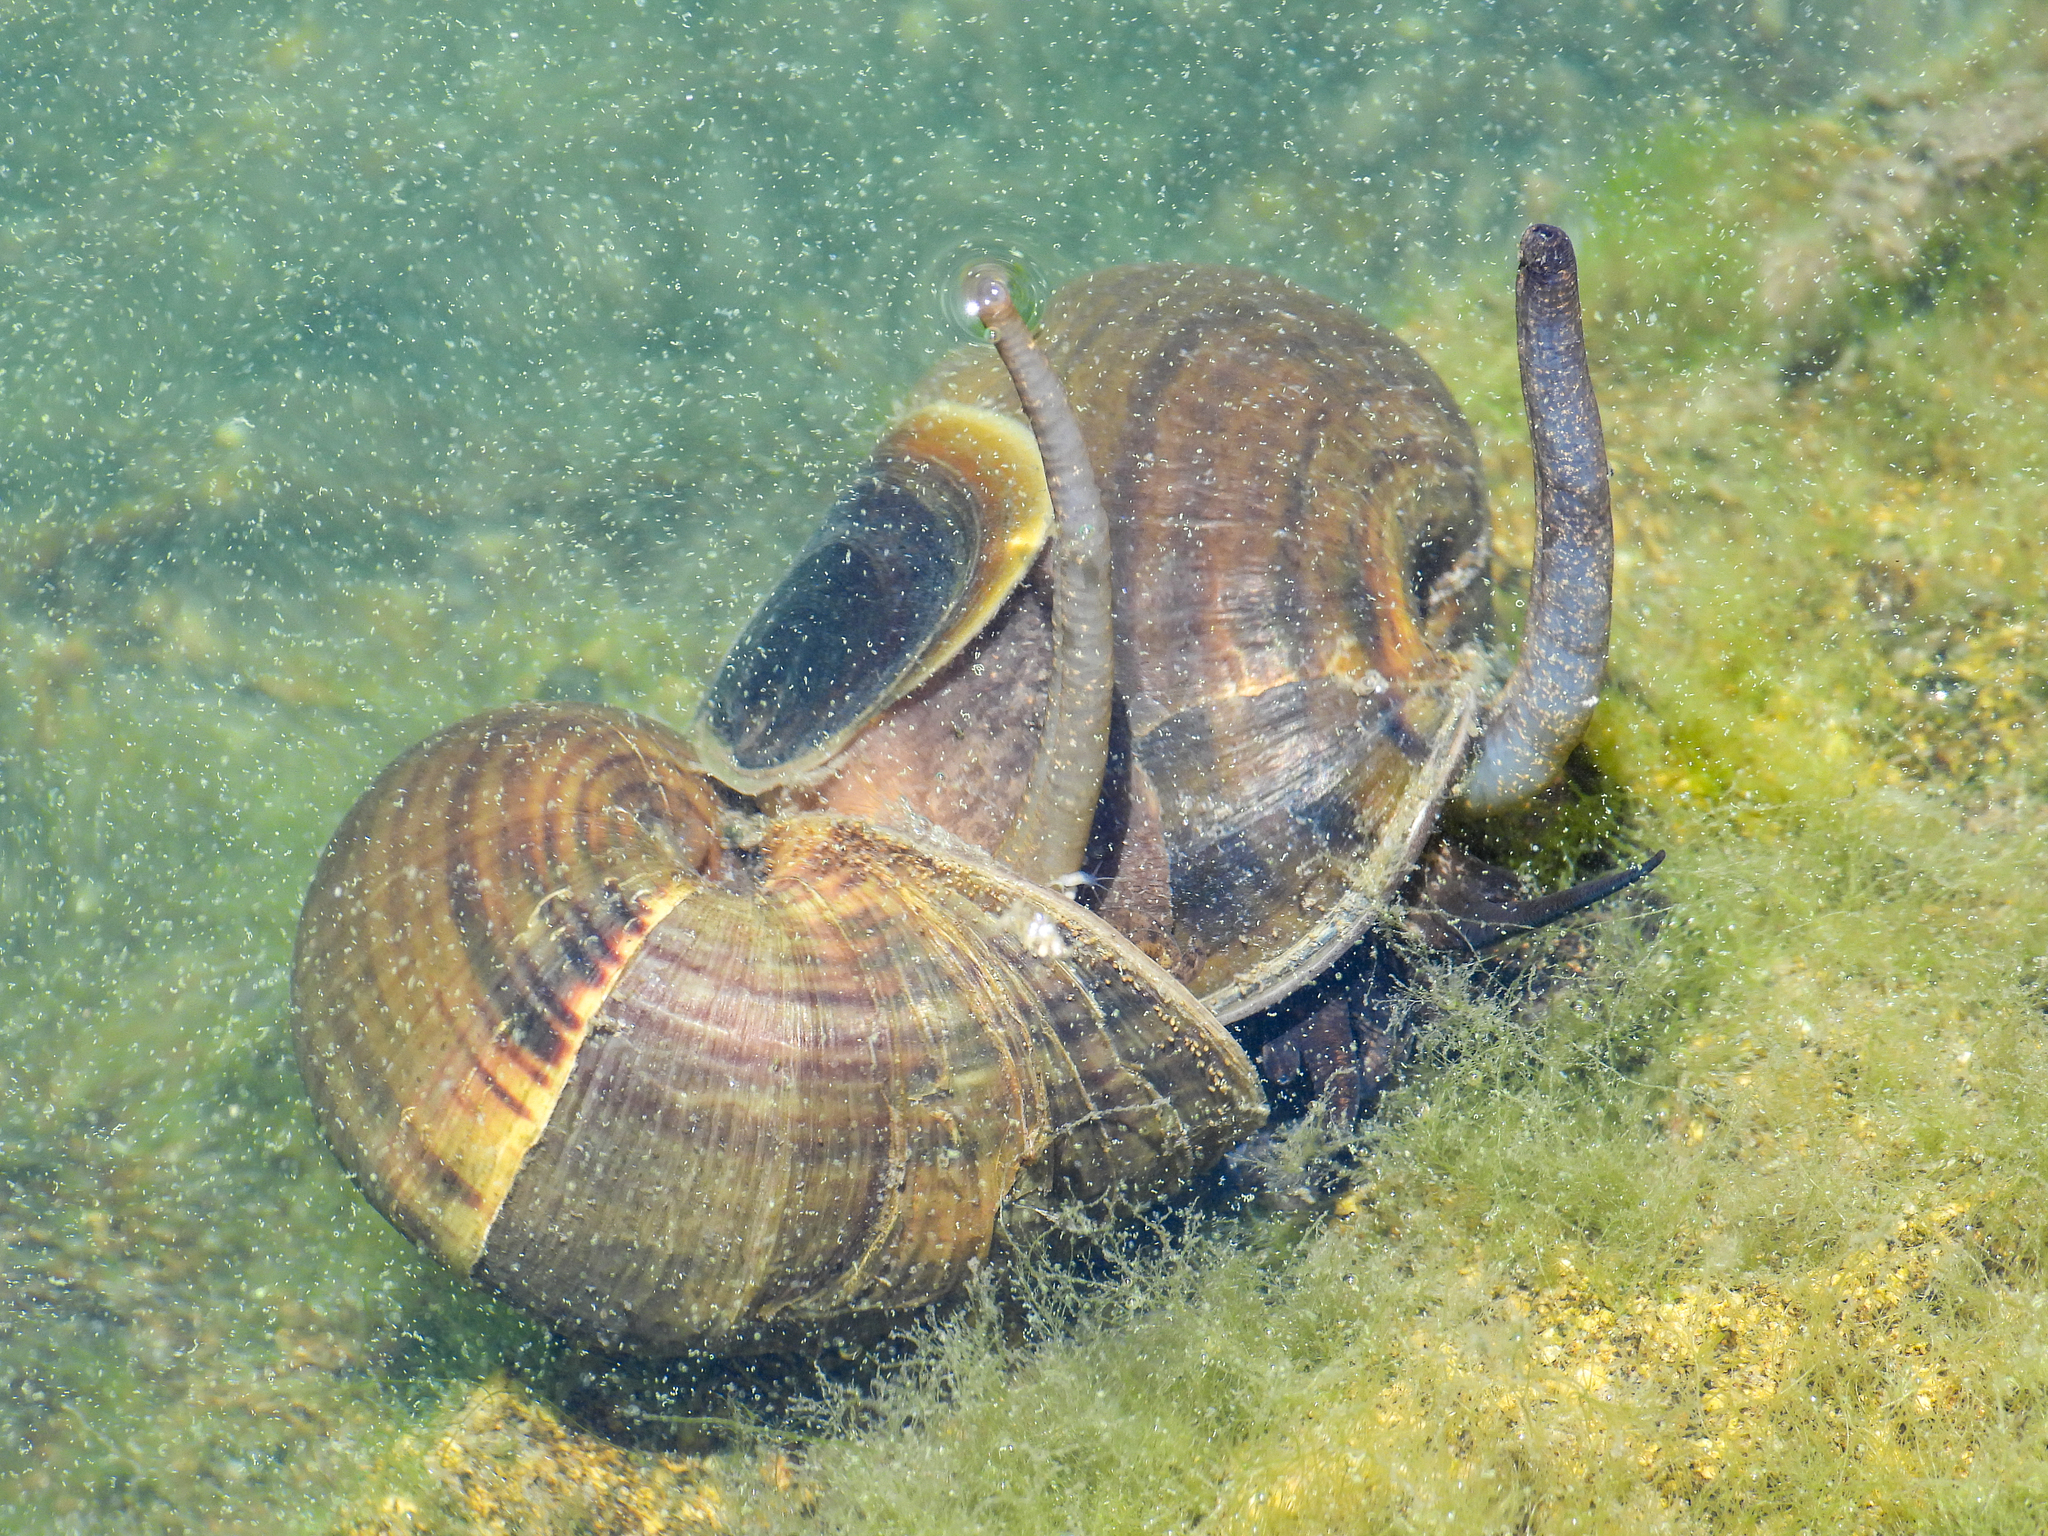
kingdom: Animalia
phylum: Mollusca
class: Gastropoda
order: Architaenioglossa
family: Ampullariidae
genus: Pomacea
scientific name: Pomacea canaliculata
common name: Channeled applesnail
